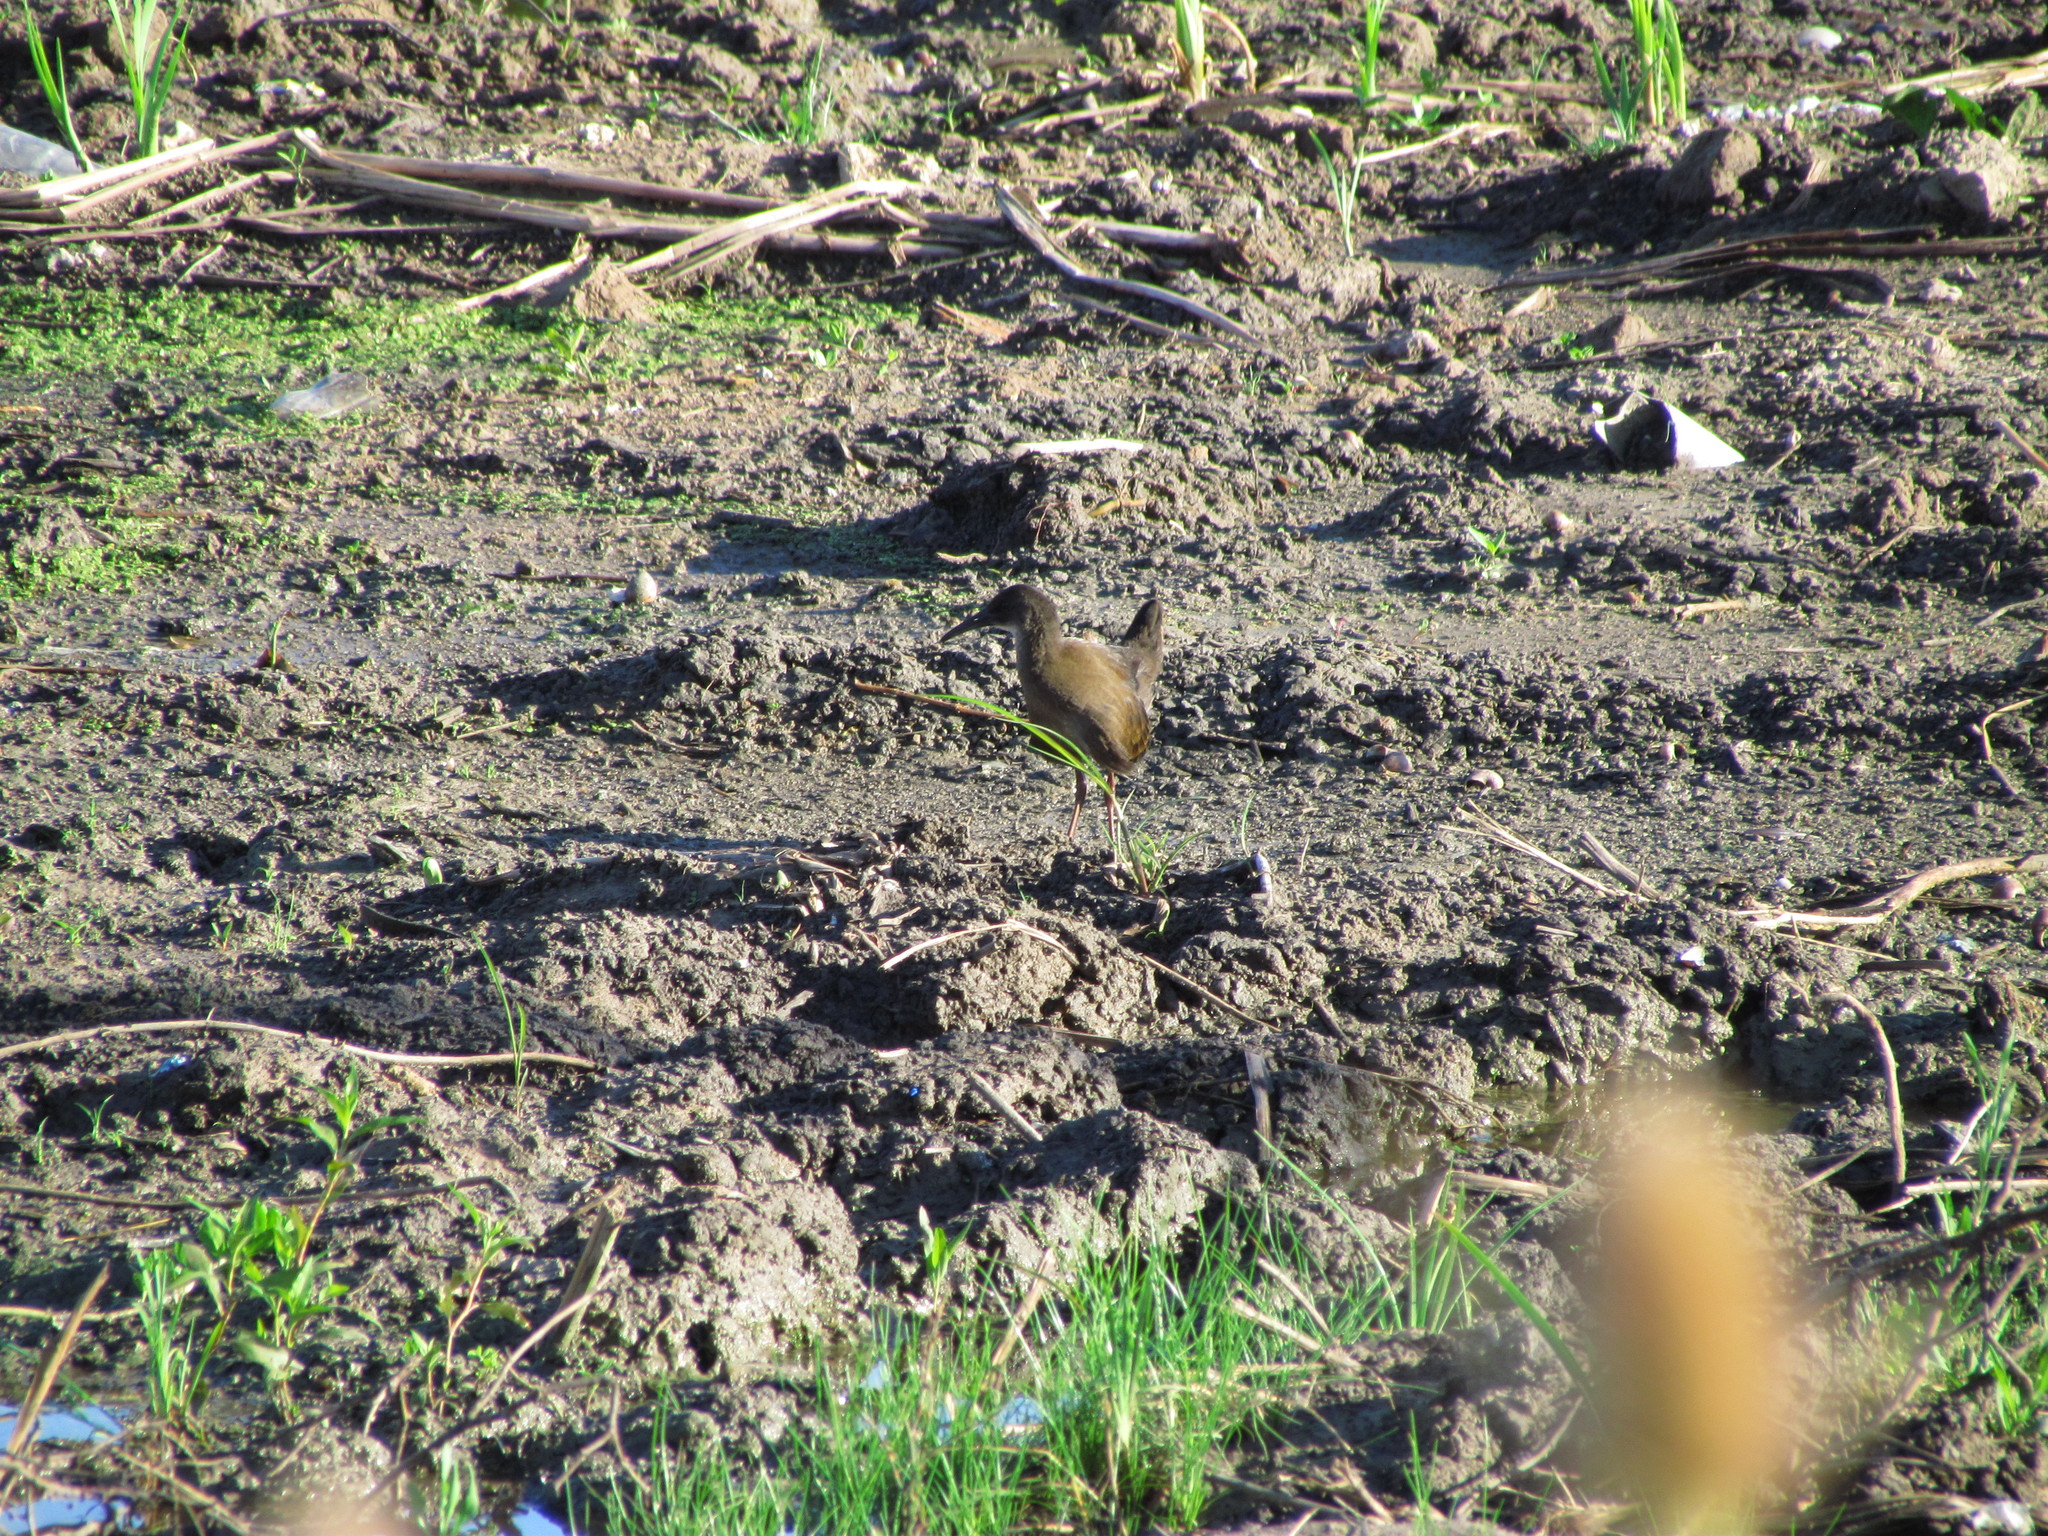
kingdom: Animalia
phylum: Chordata
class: Aves
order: Gruiformes
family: Rallidae
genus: Pardirallus
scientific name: Pardirallus sanguinolentus
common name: Plumbeous rail
